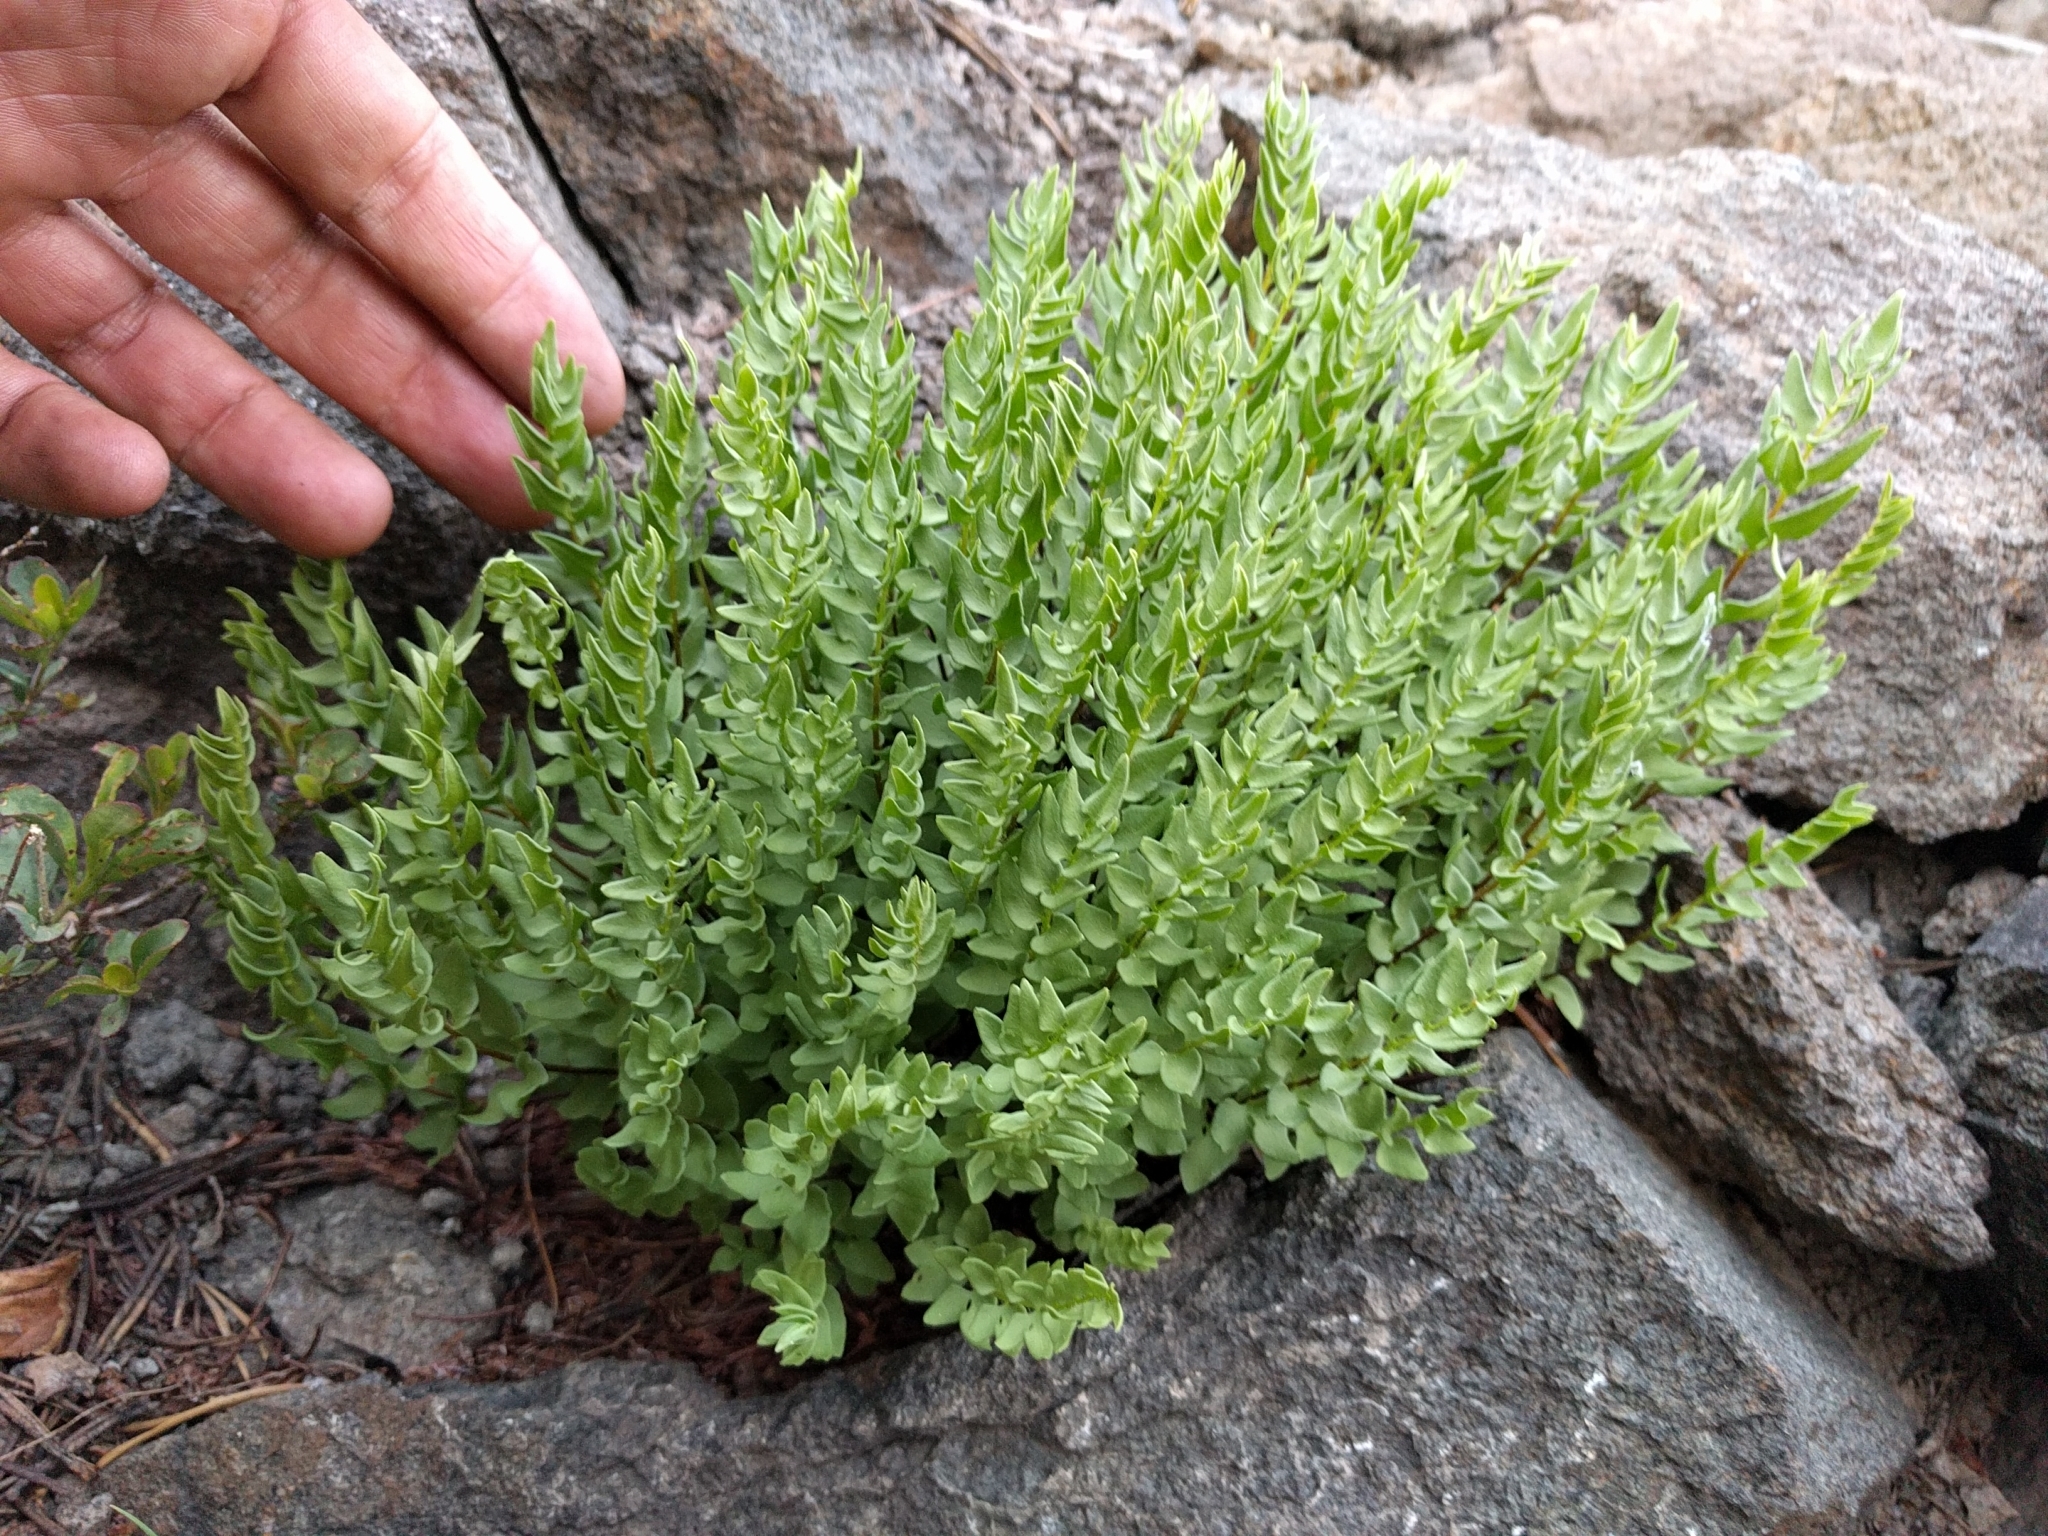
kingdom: Plantae
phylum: Tracheophyta
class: Polypodiopsida
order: Polypodiales
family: Pteridaceae
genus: Pellaea
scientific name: Pellaea breweri
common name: Brewer's cliffbrake
